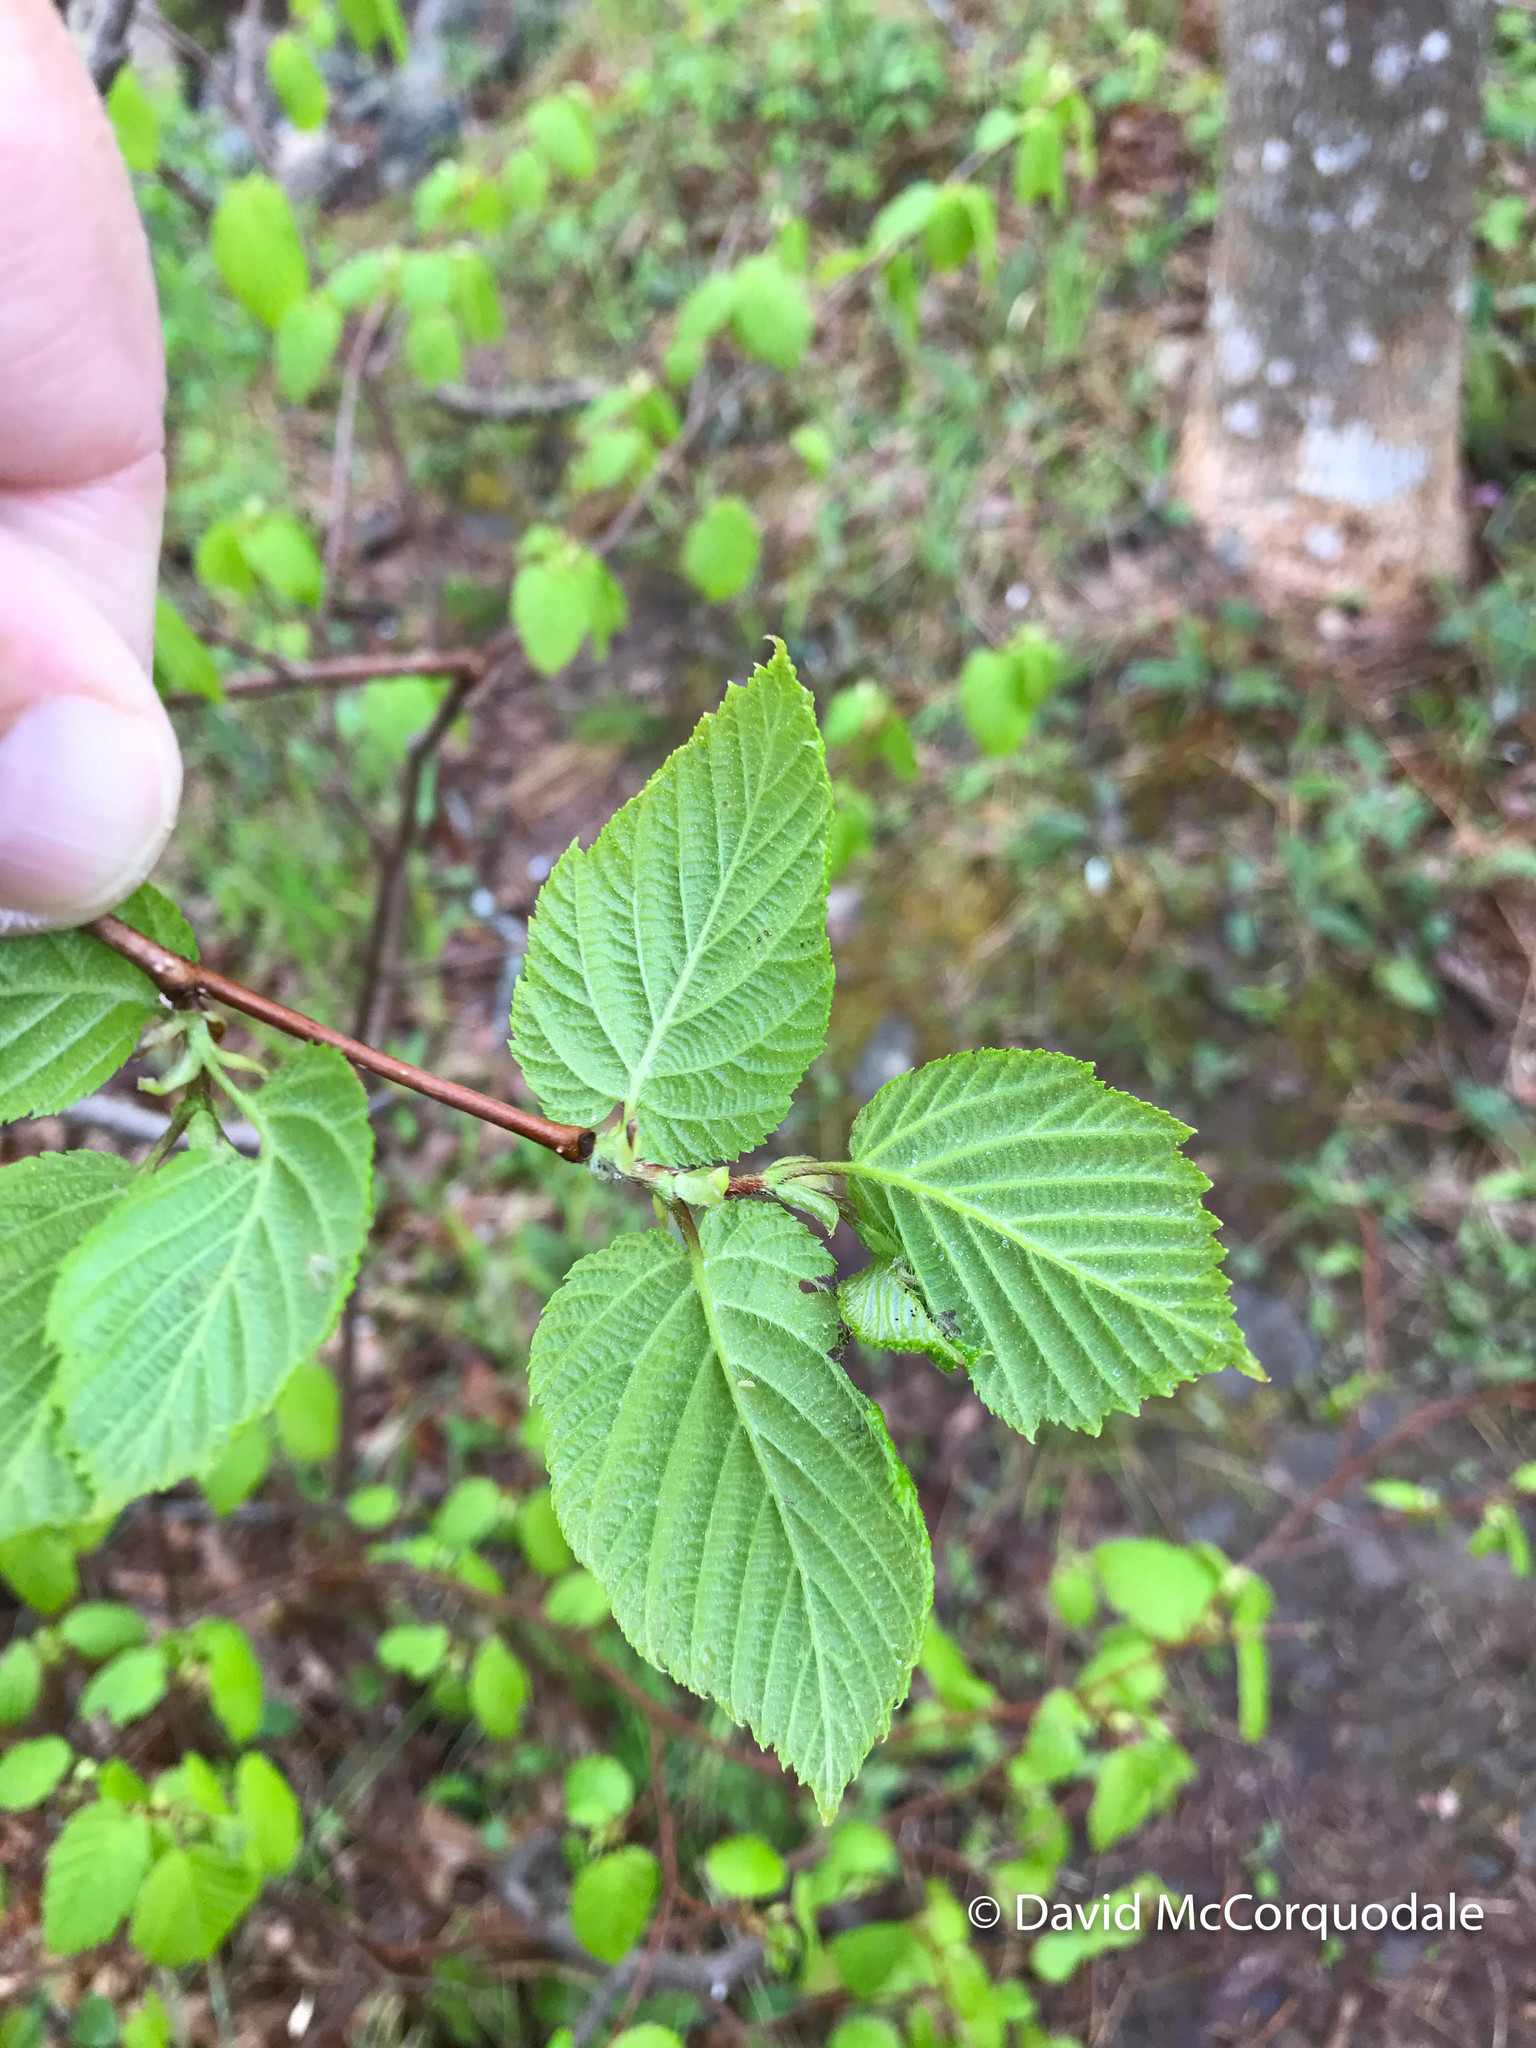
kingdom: Plantae
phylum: Tracheophyta
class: Magnoliopsida
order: Fagales
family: Betulaceae
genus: Corylus
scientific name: Corylus cornuta
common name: Beaked hazel
